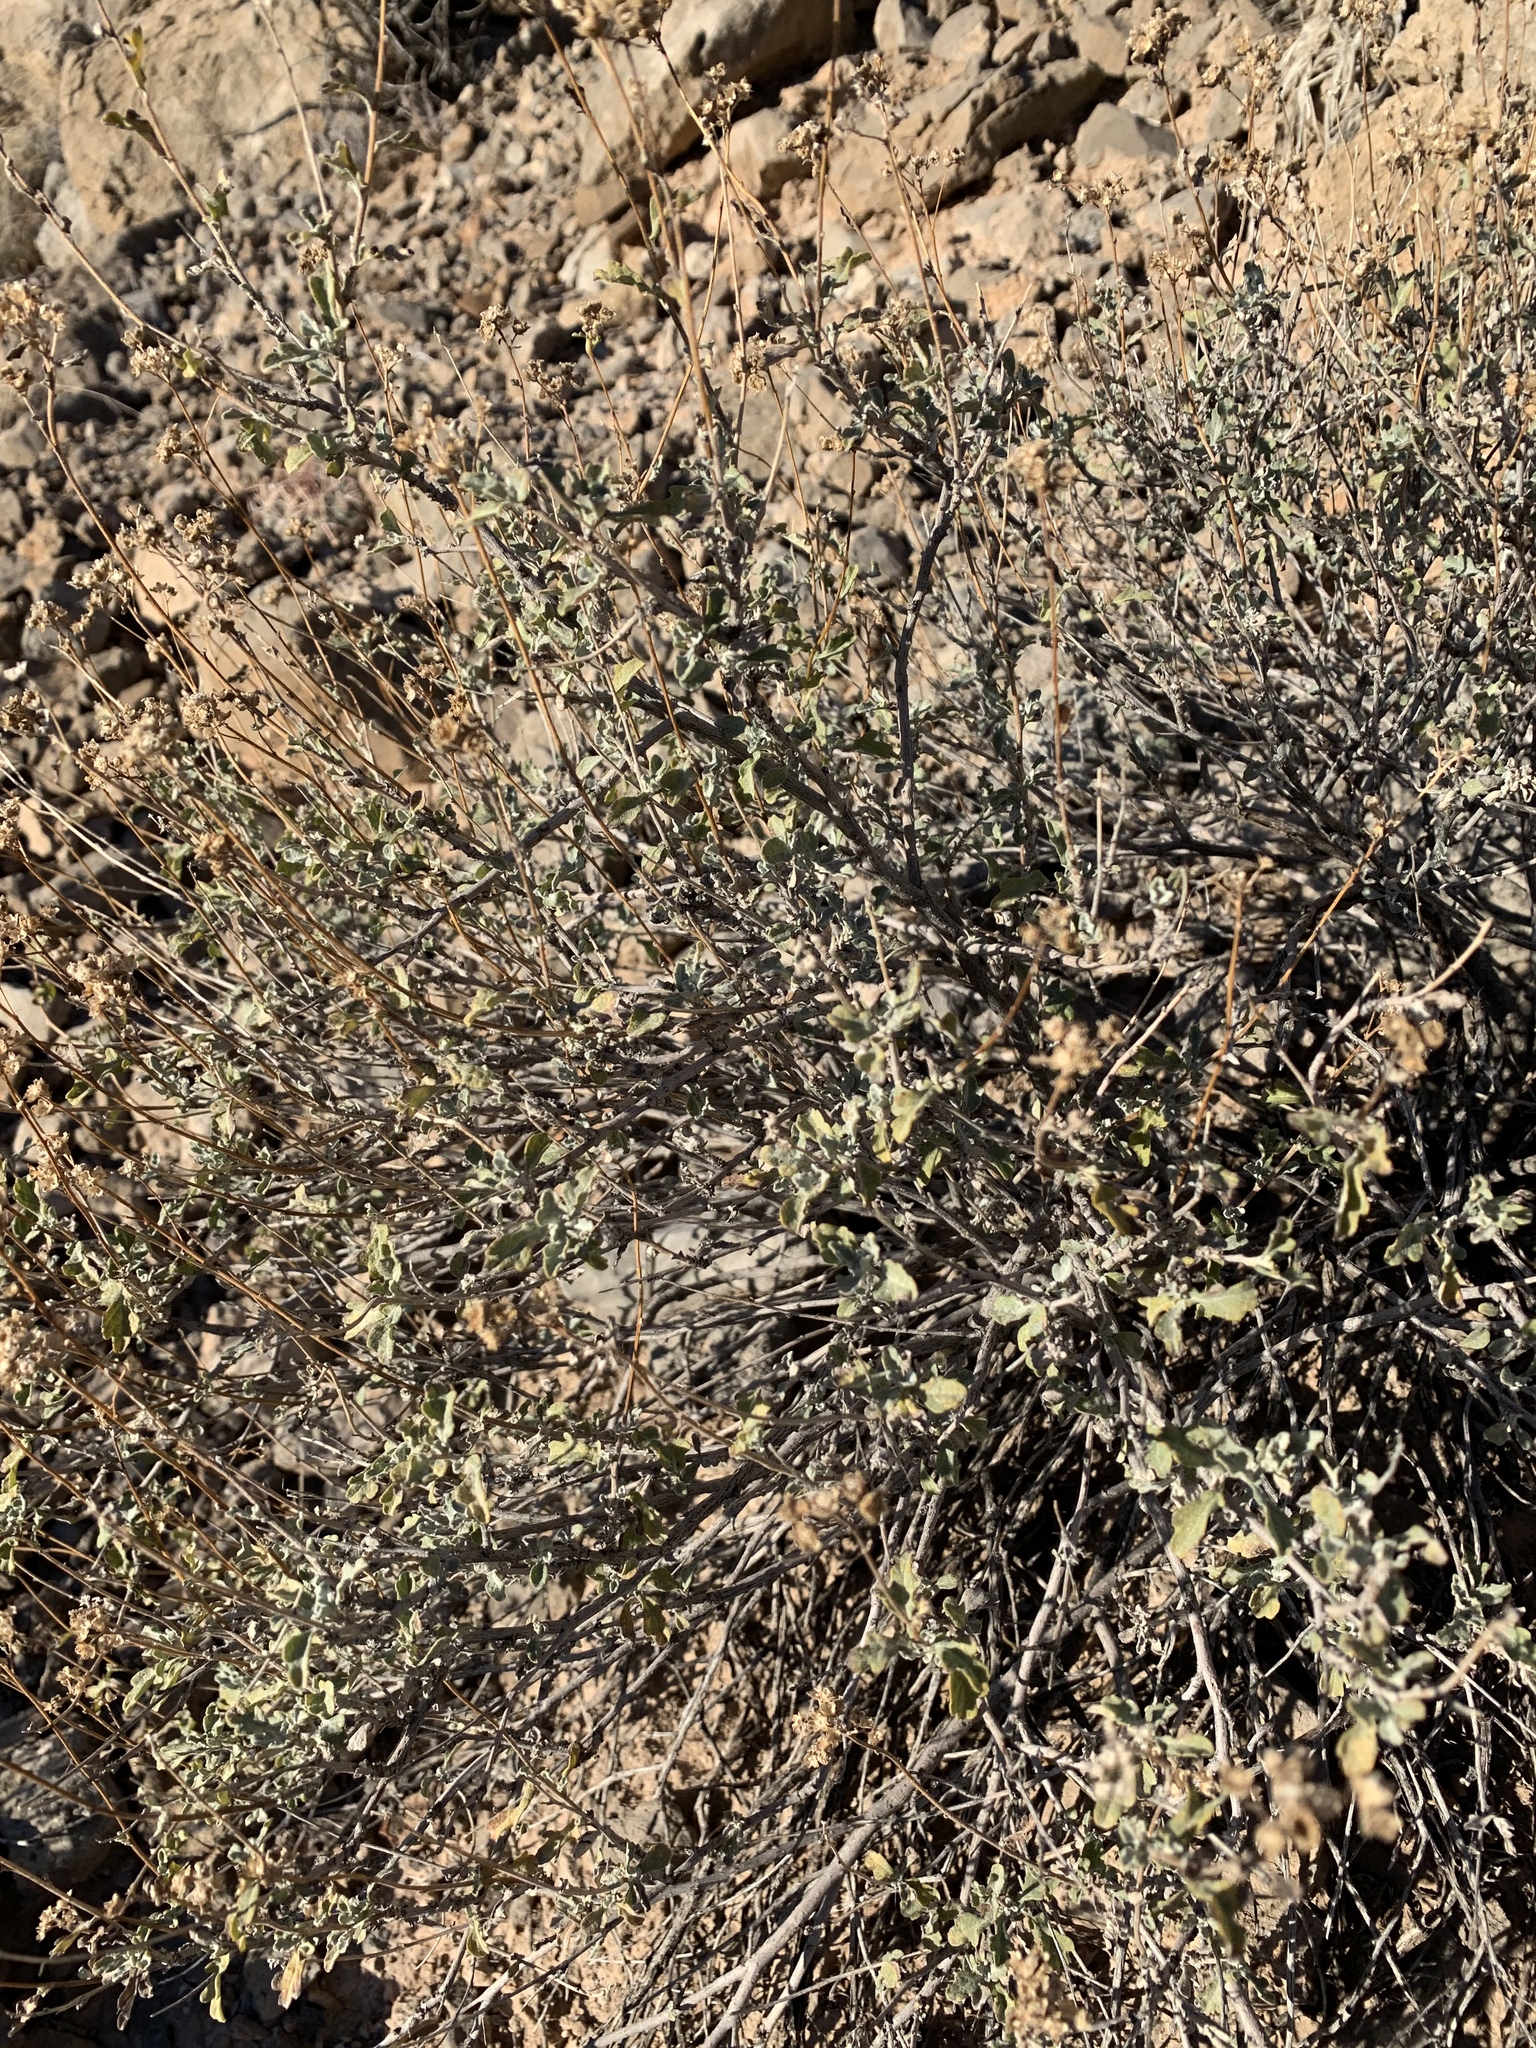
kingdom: Plantae
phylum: Tracheophyta
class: Magnoliopsida
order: Asterales
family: Asteraceae
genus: Parthenium
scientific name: Parthenium incanum
